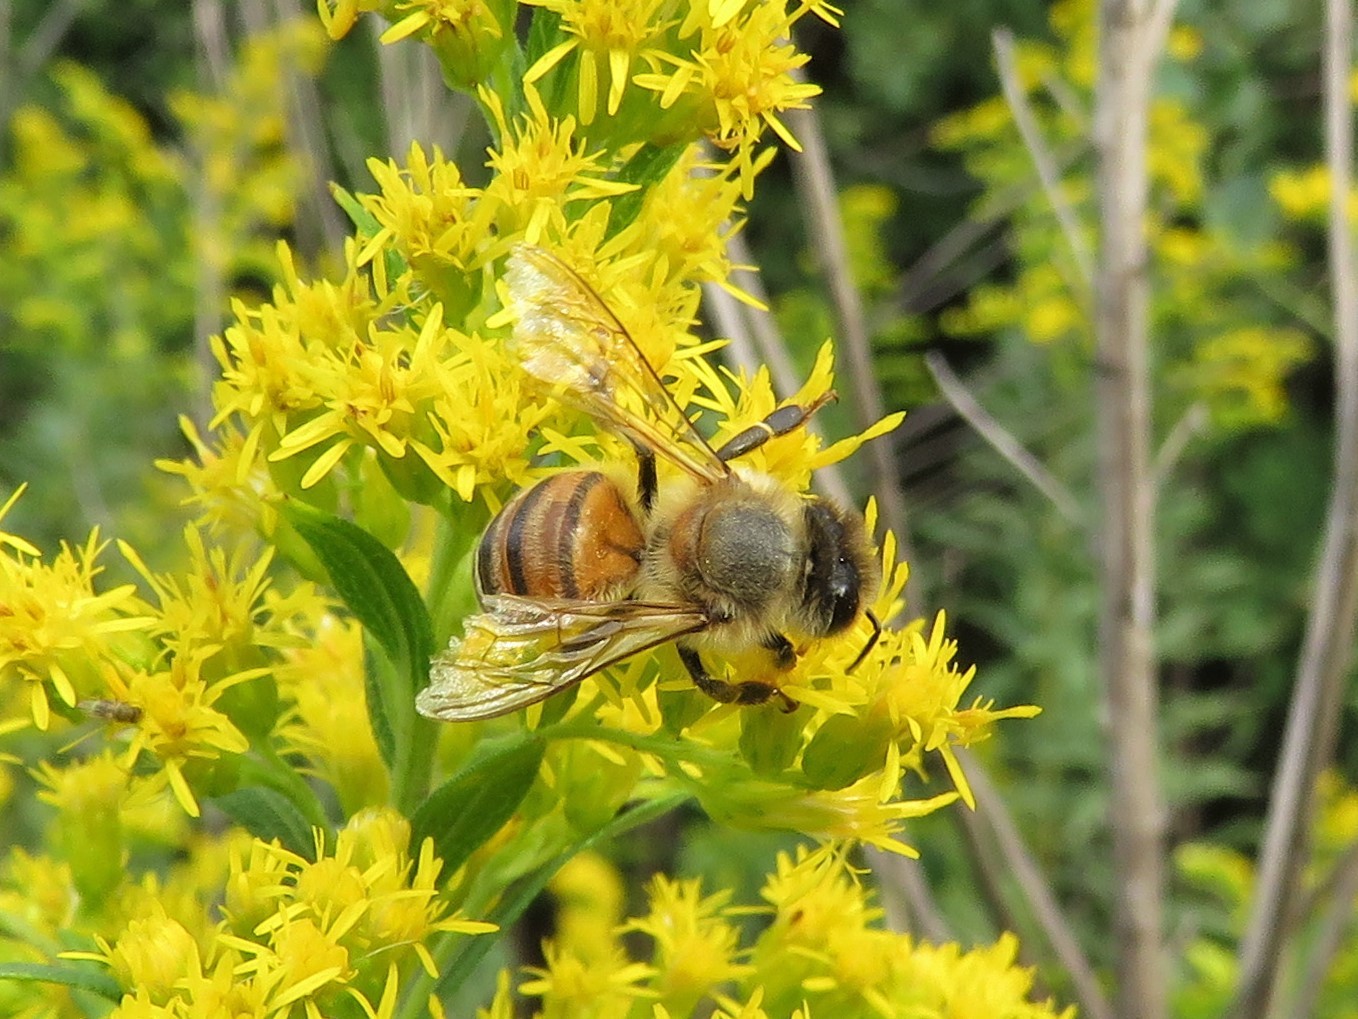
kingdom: Animalia
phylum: Arthropoda
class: Insecta
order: Hymenoptera
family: Apidae
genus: Apis
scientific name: Apis mellifera
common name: Honey bee
